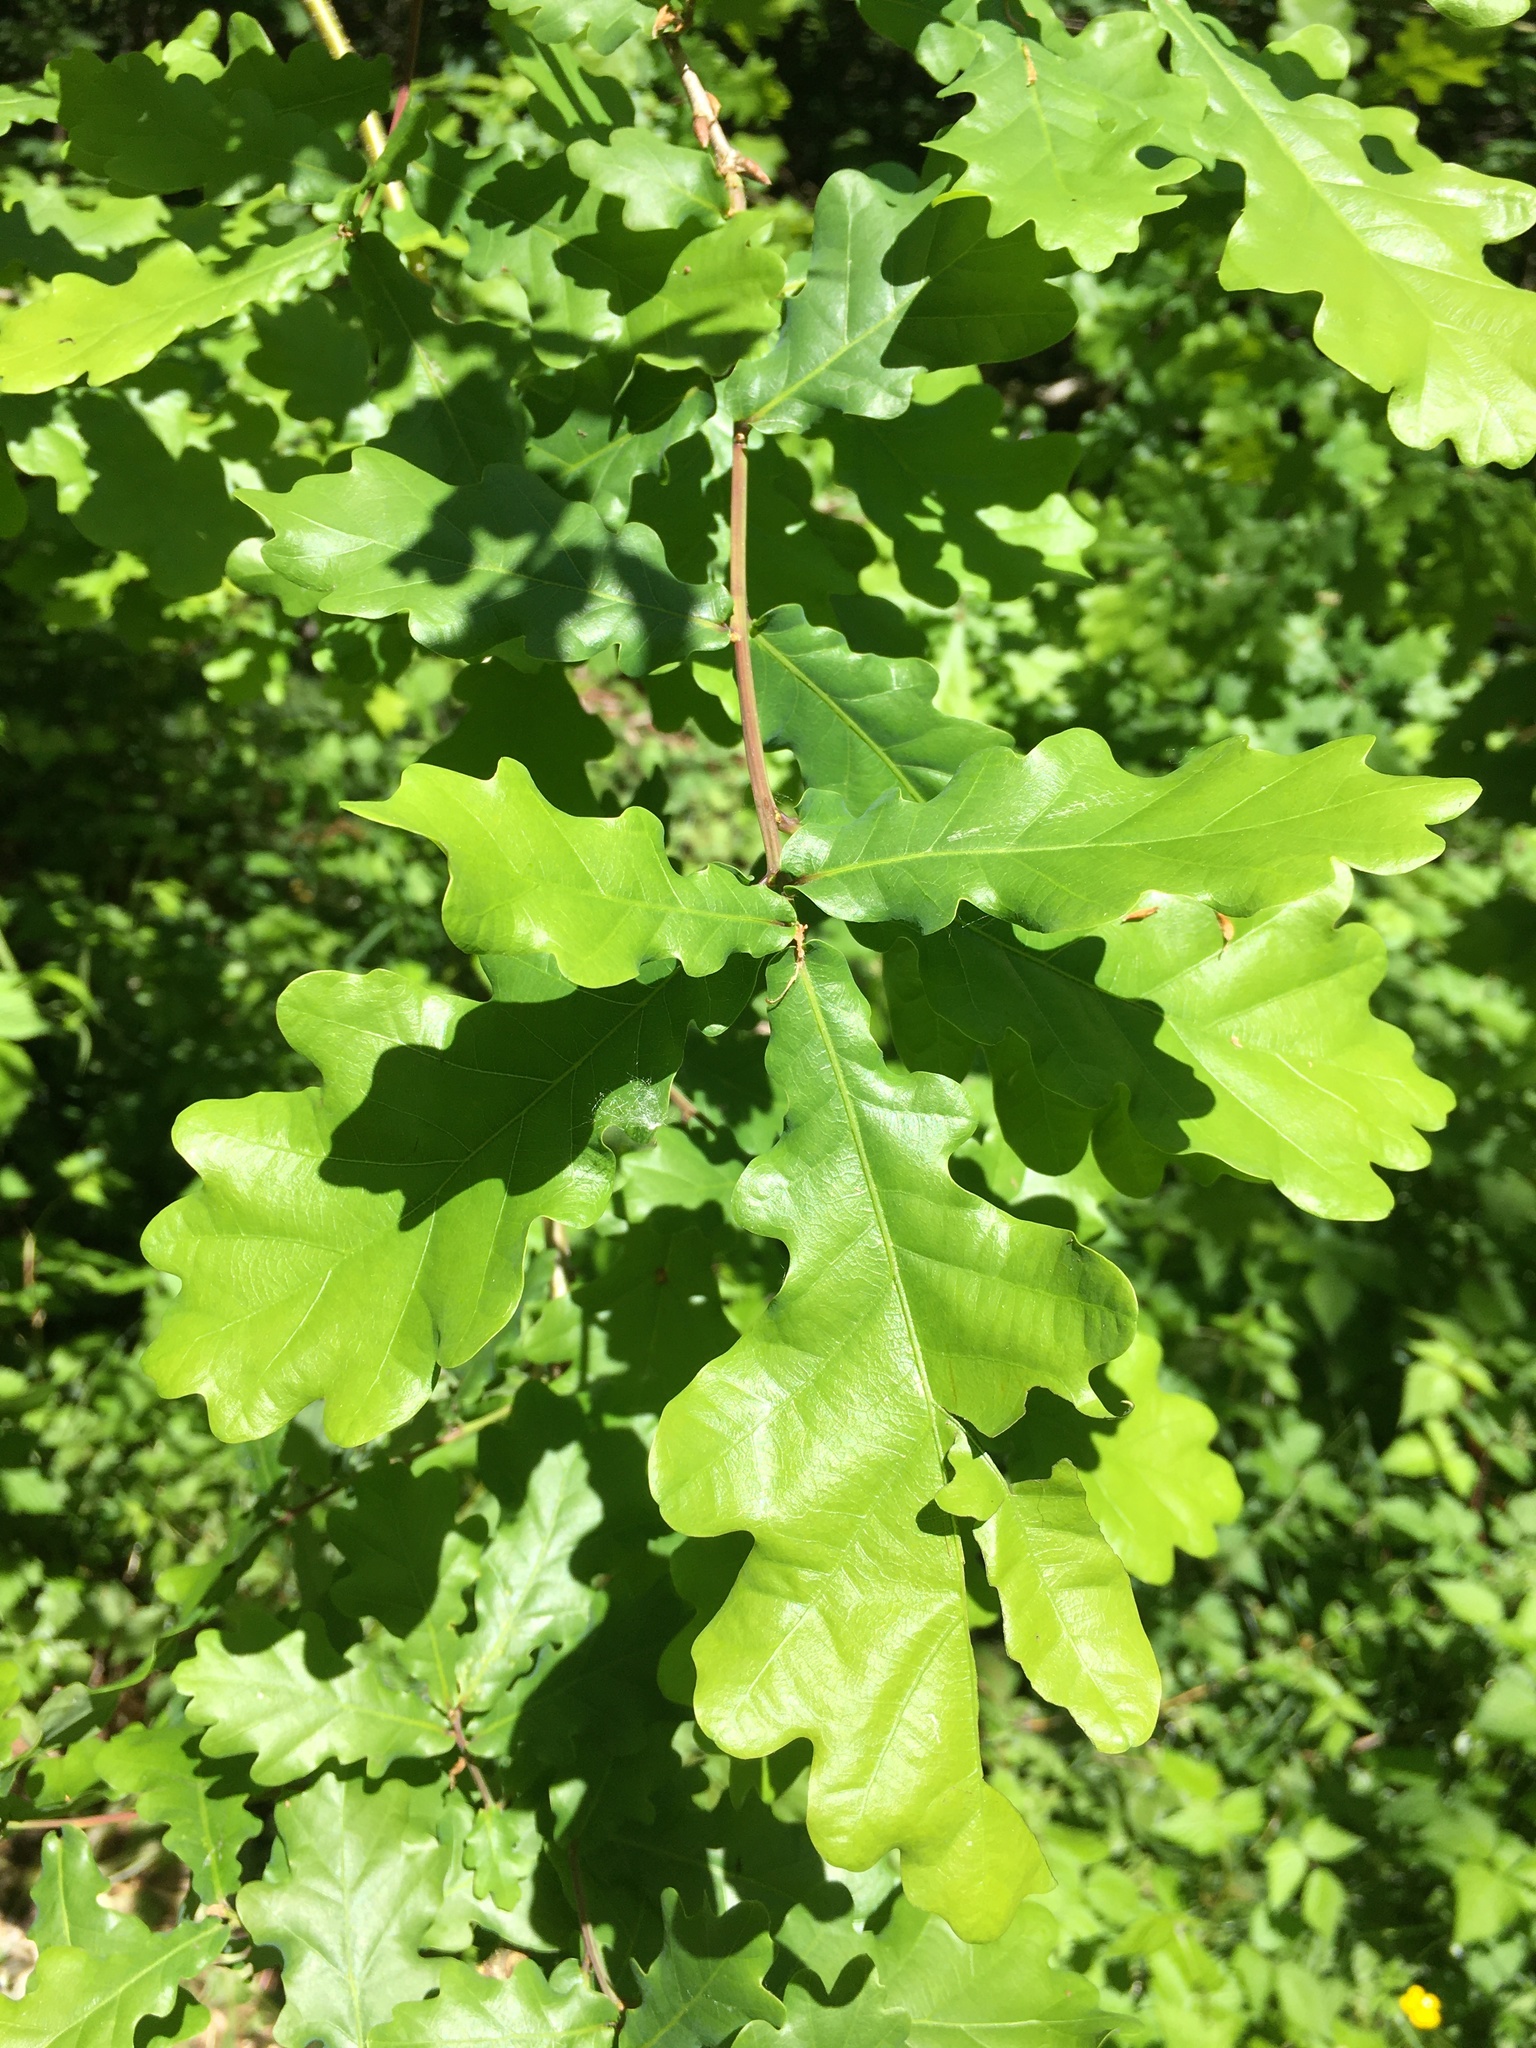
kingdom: Plantae
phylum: Tracheophyta
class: Magnoliopsida
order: Fagales
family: Fagaceae
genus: Quercus
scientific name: Quercus robur
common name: Pedunculate oak
